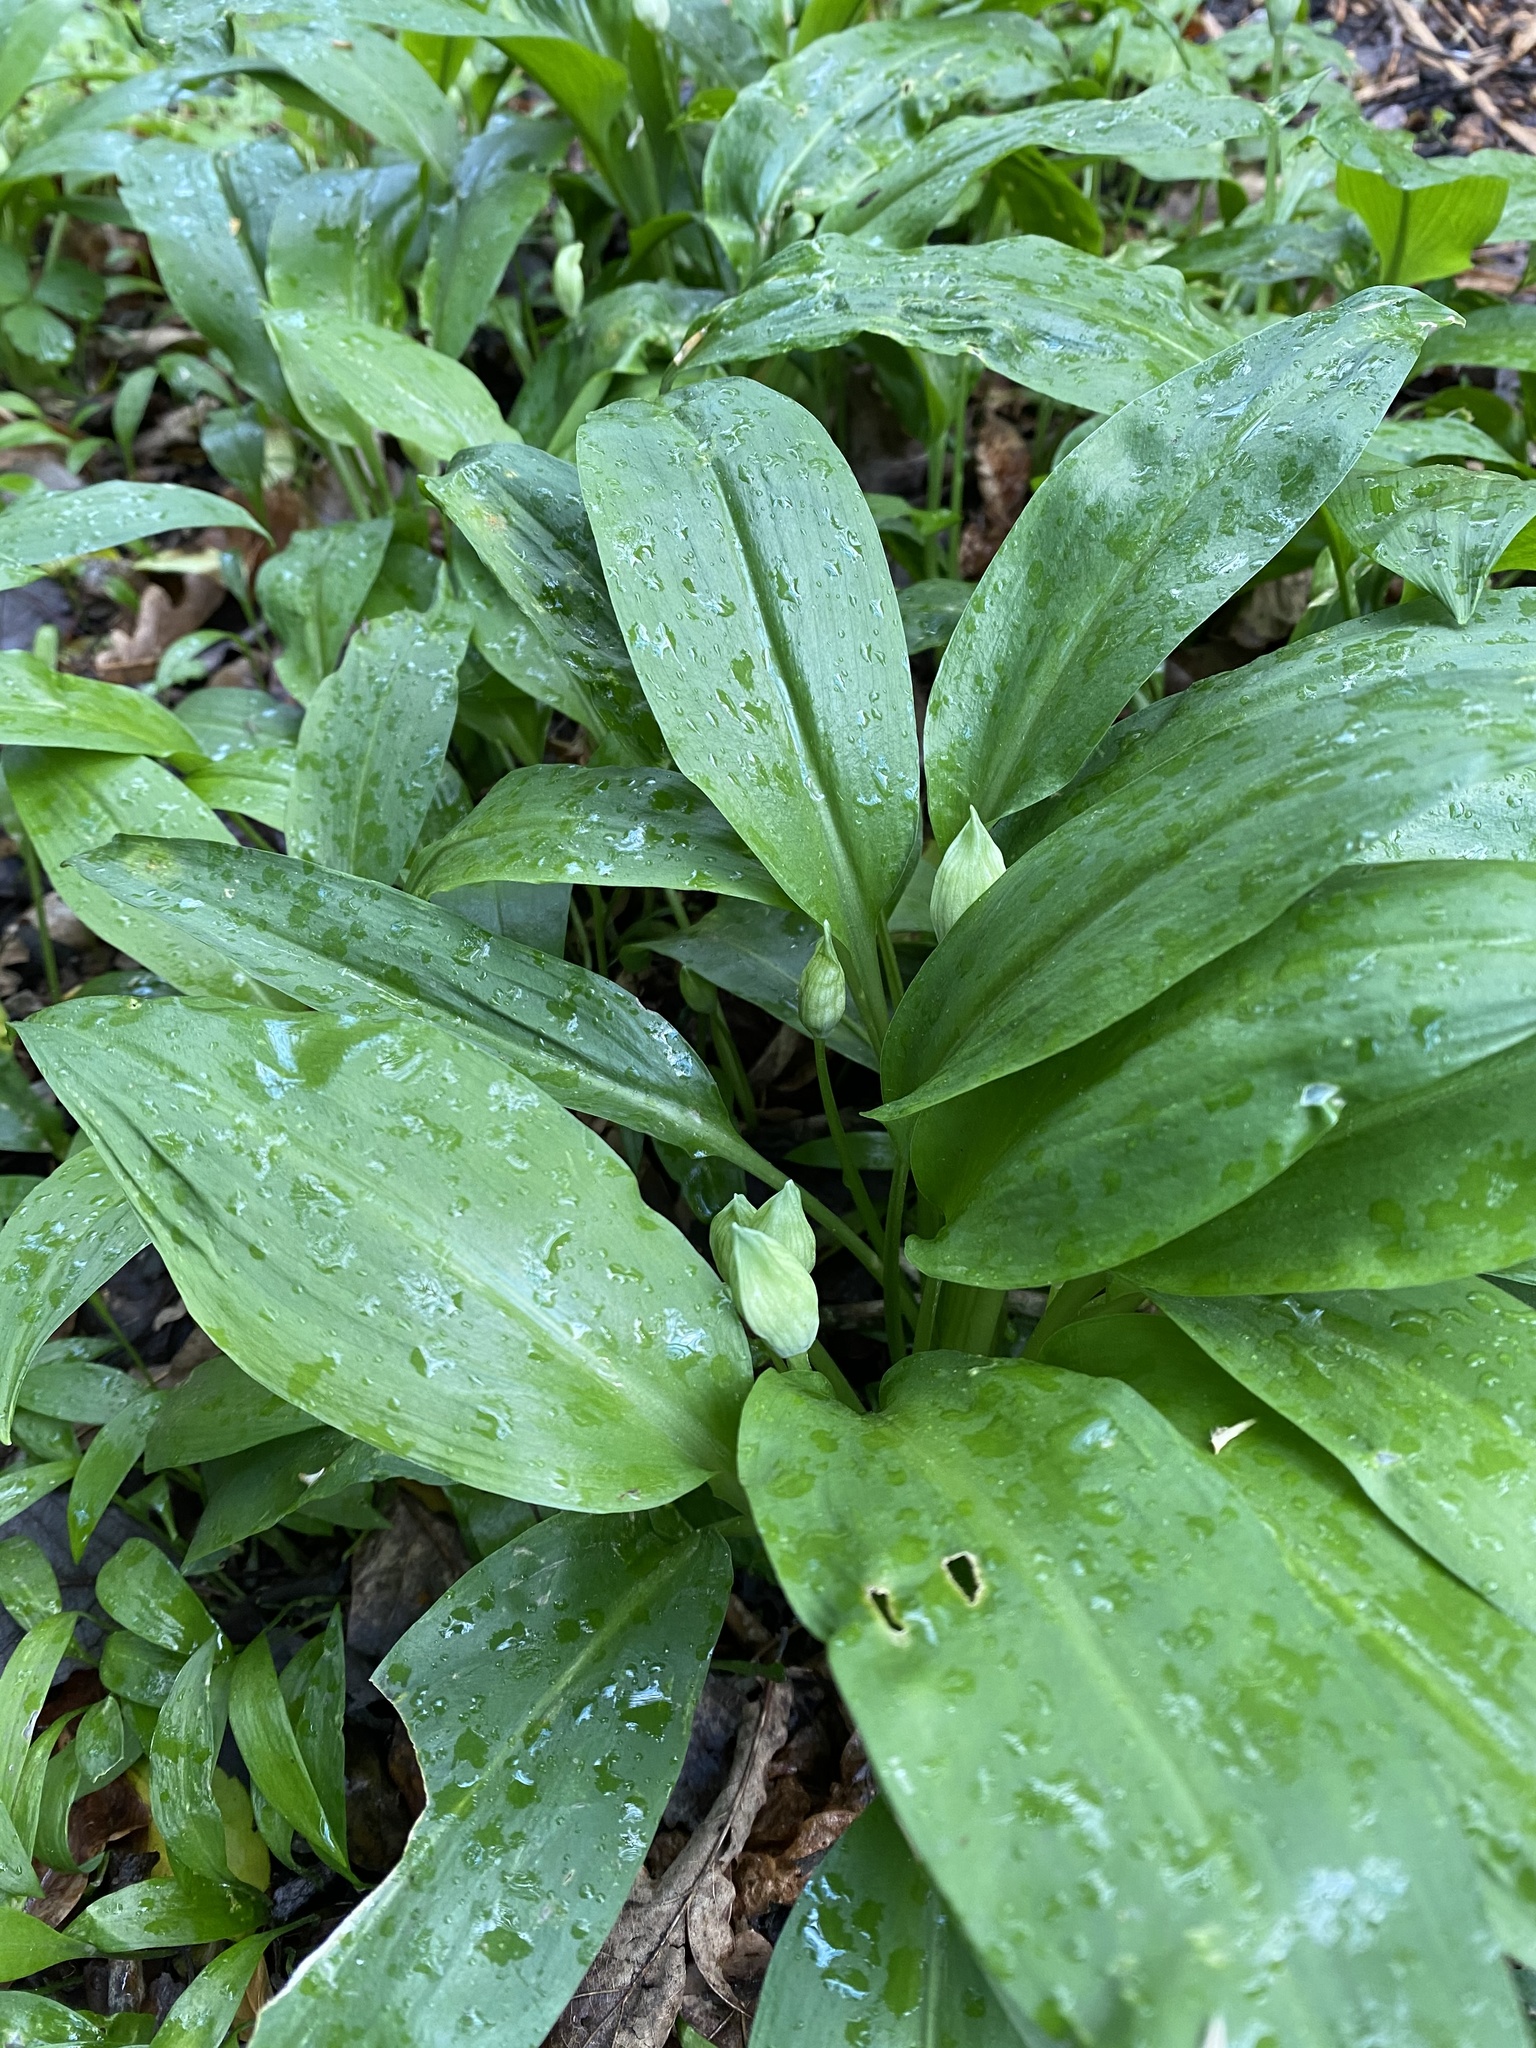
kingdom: Plantae
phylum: Tracheophyta
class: Liliopsida
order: Asparagales
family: Amaryllidaceae
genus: Allium
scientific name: Allium ursinum
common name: Ramsons
